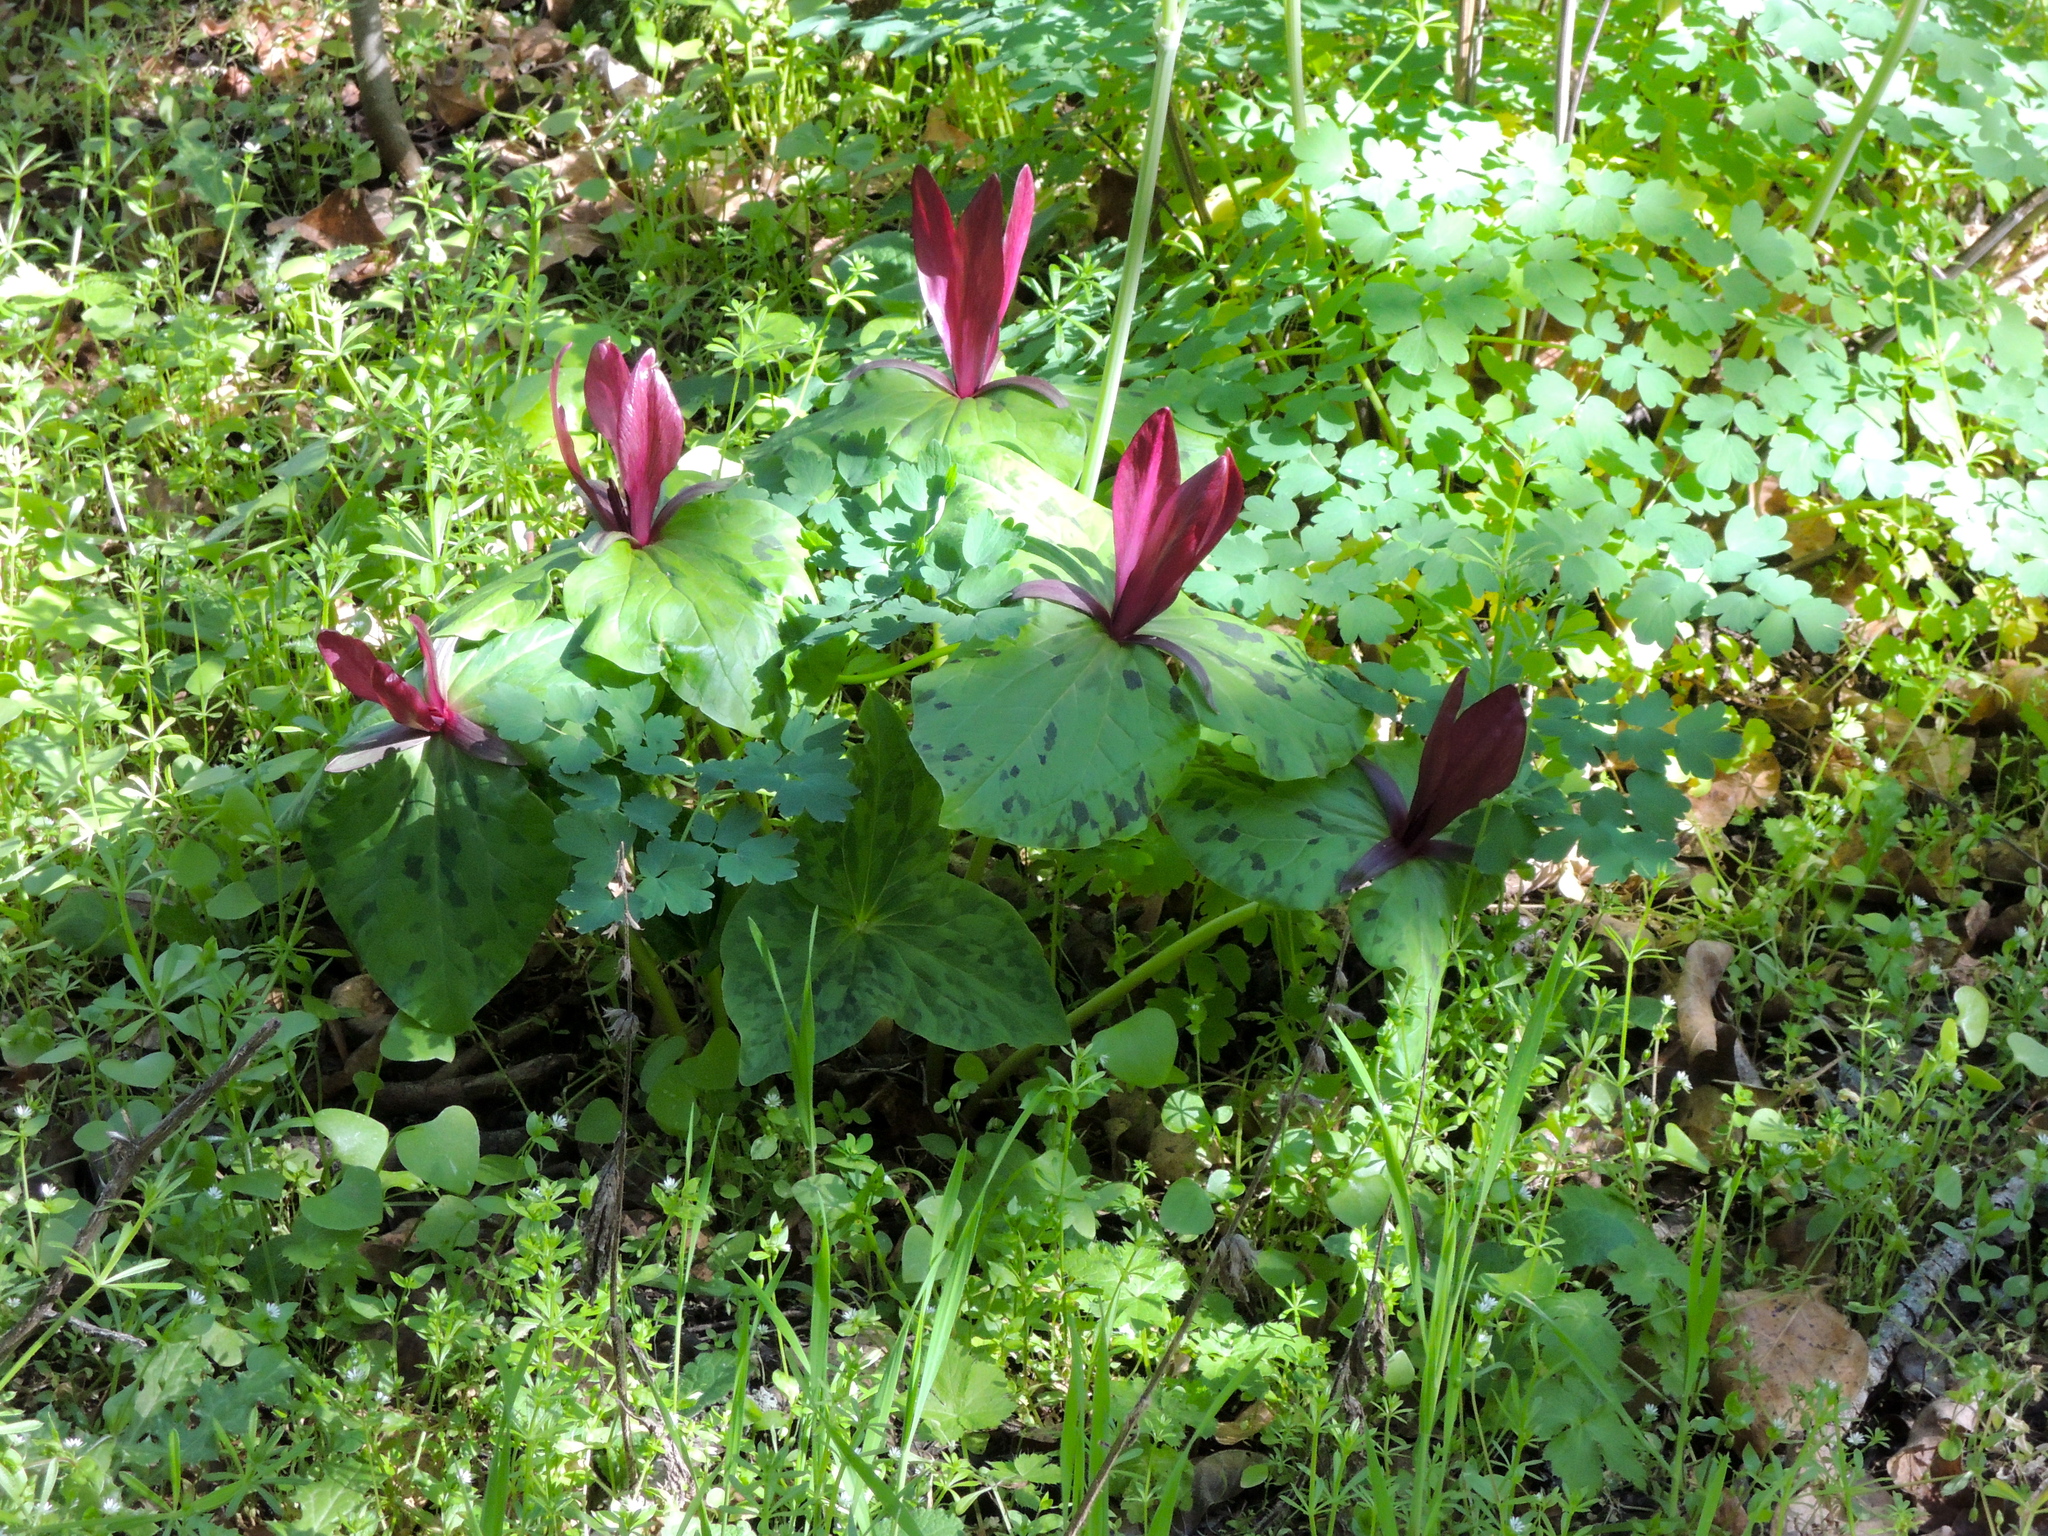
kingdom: Plantae
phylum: Tracheophyta
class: Liliopsida
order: Liliales
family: Melanthiaceae
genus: Trillium
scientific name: Trillium chloropetalum
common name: Giant trillium
